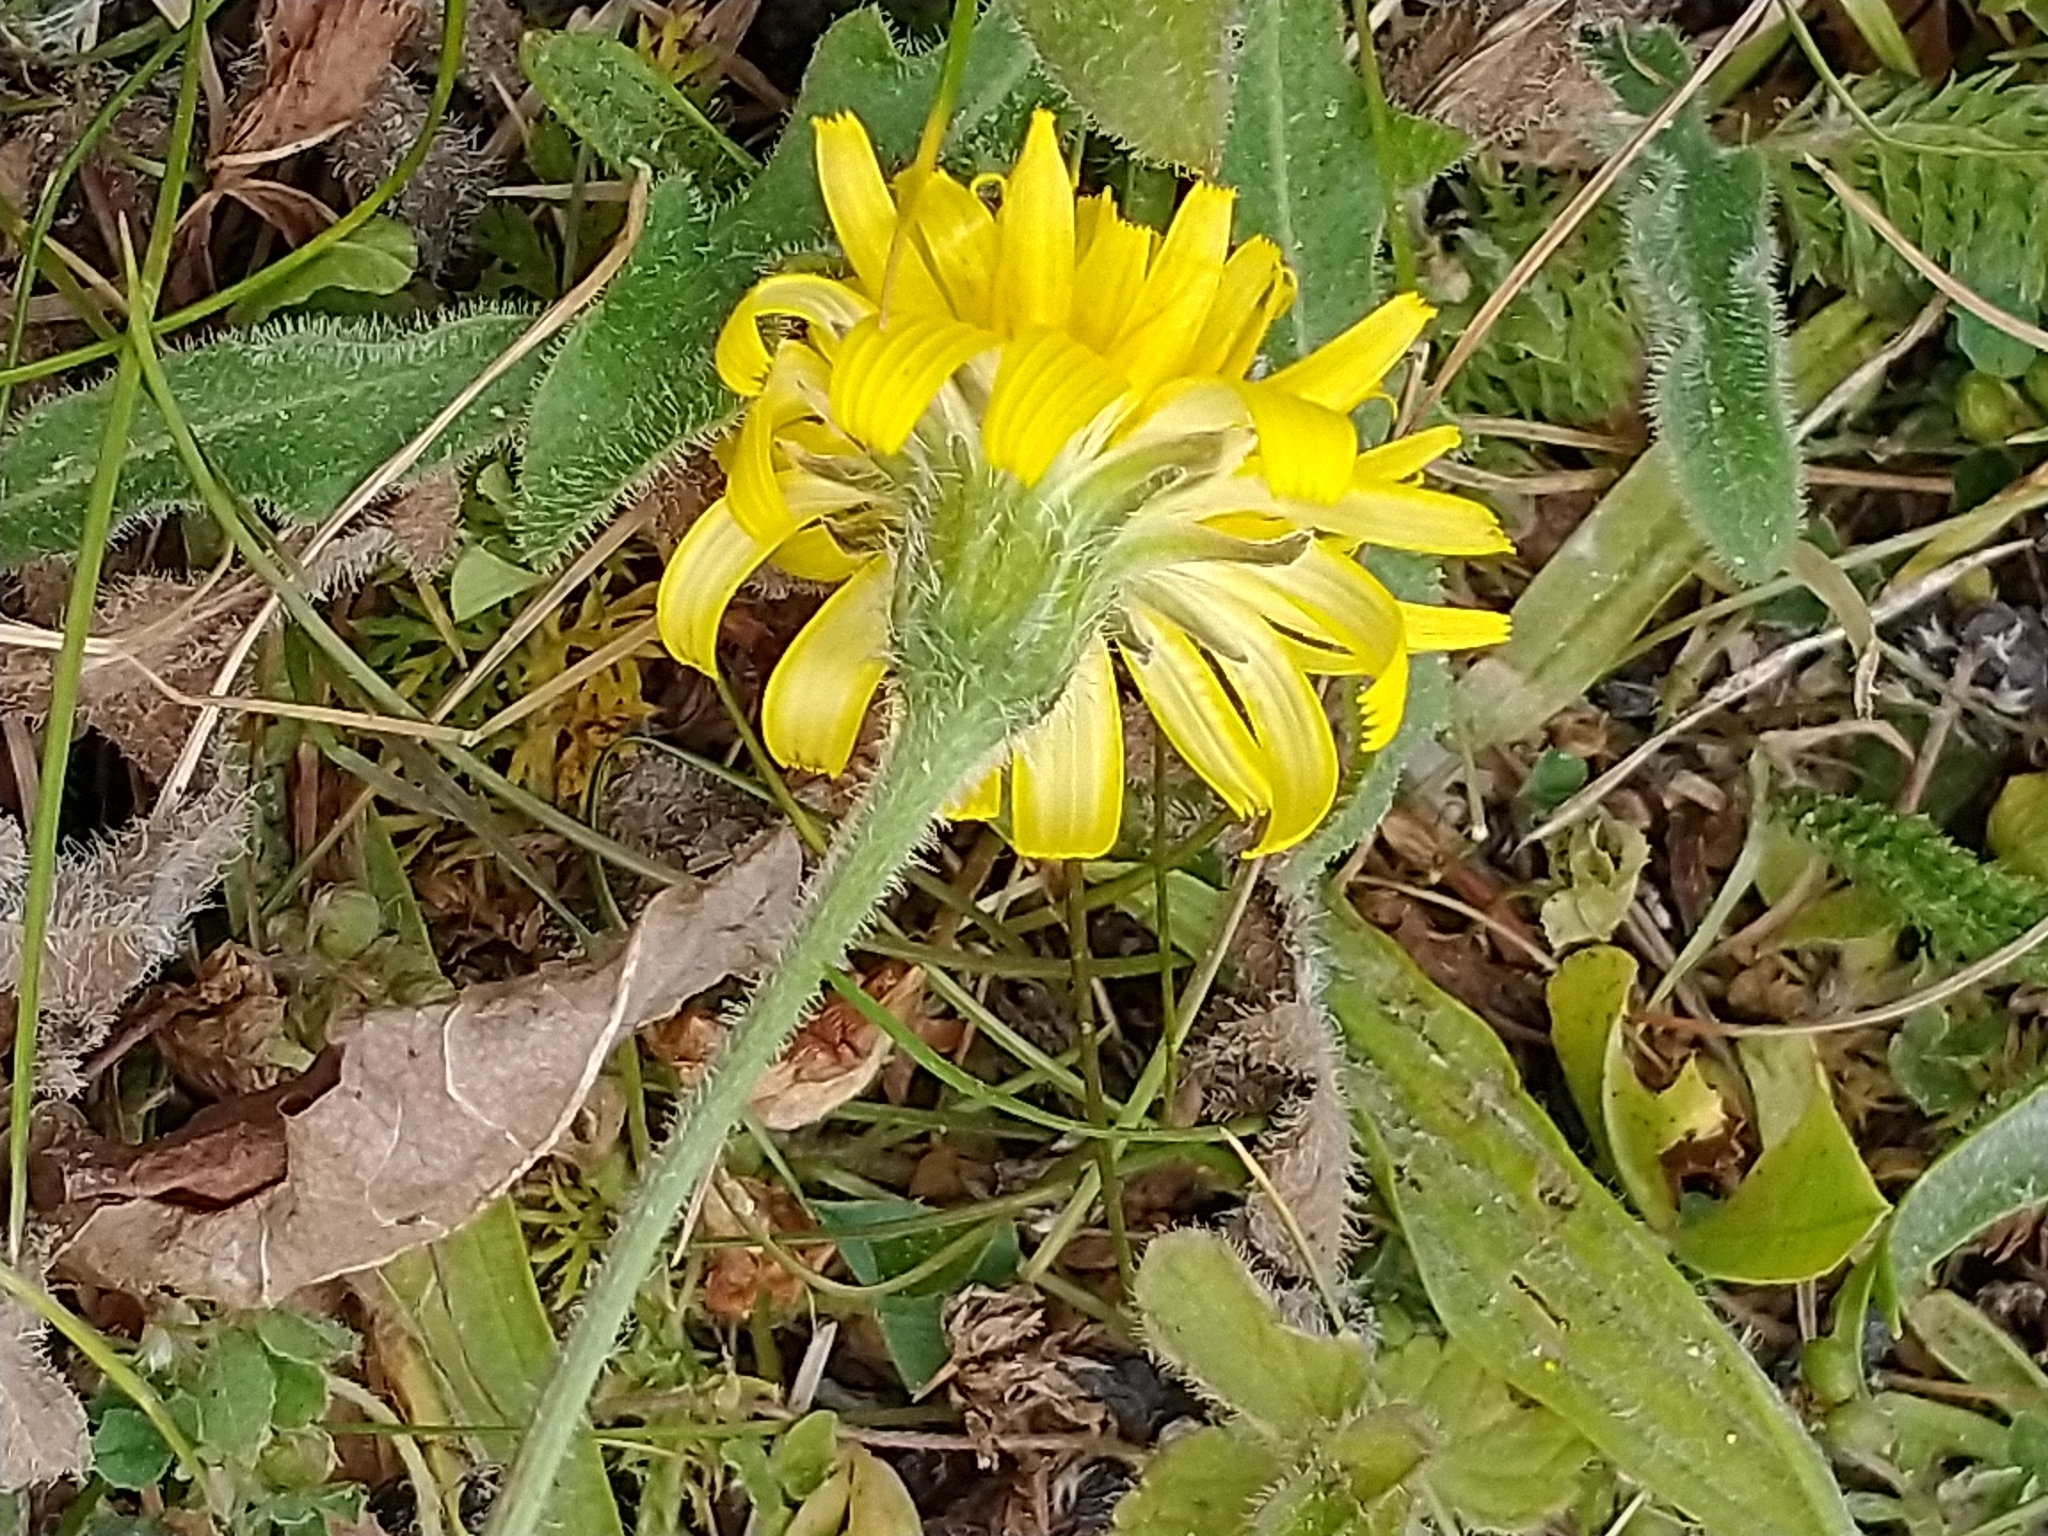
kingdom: Plantae
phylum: Tracheophyta
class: Magnoliopsida
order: Asterales
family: Asteraceae
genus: Leontodon
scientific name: Leontodon hispidus
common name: Rough hawkbit
